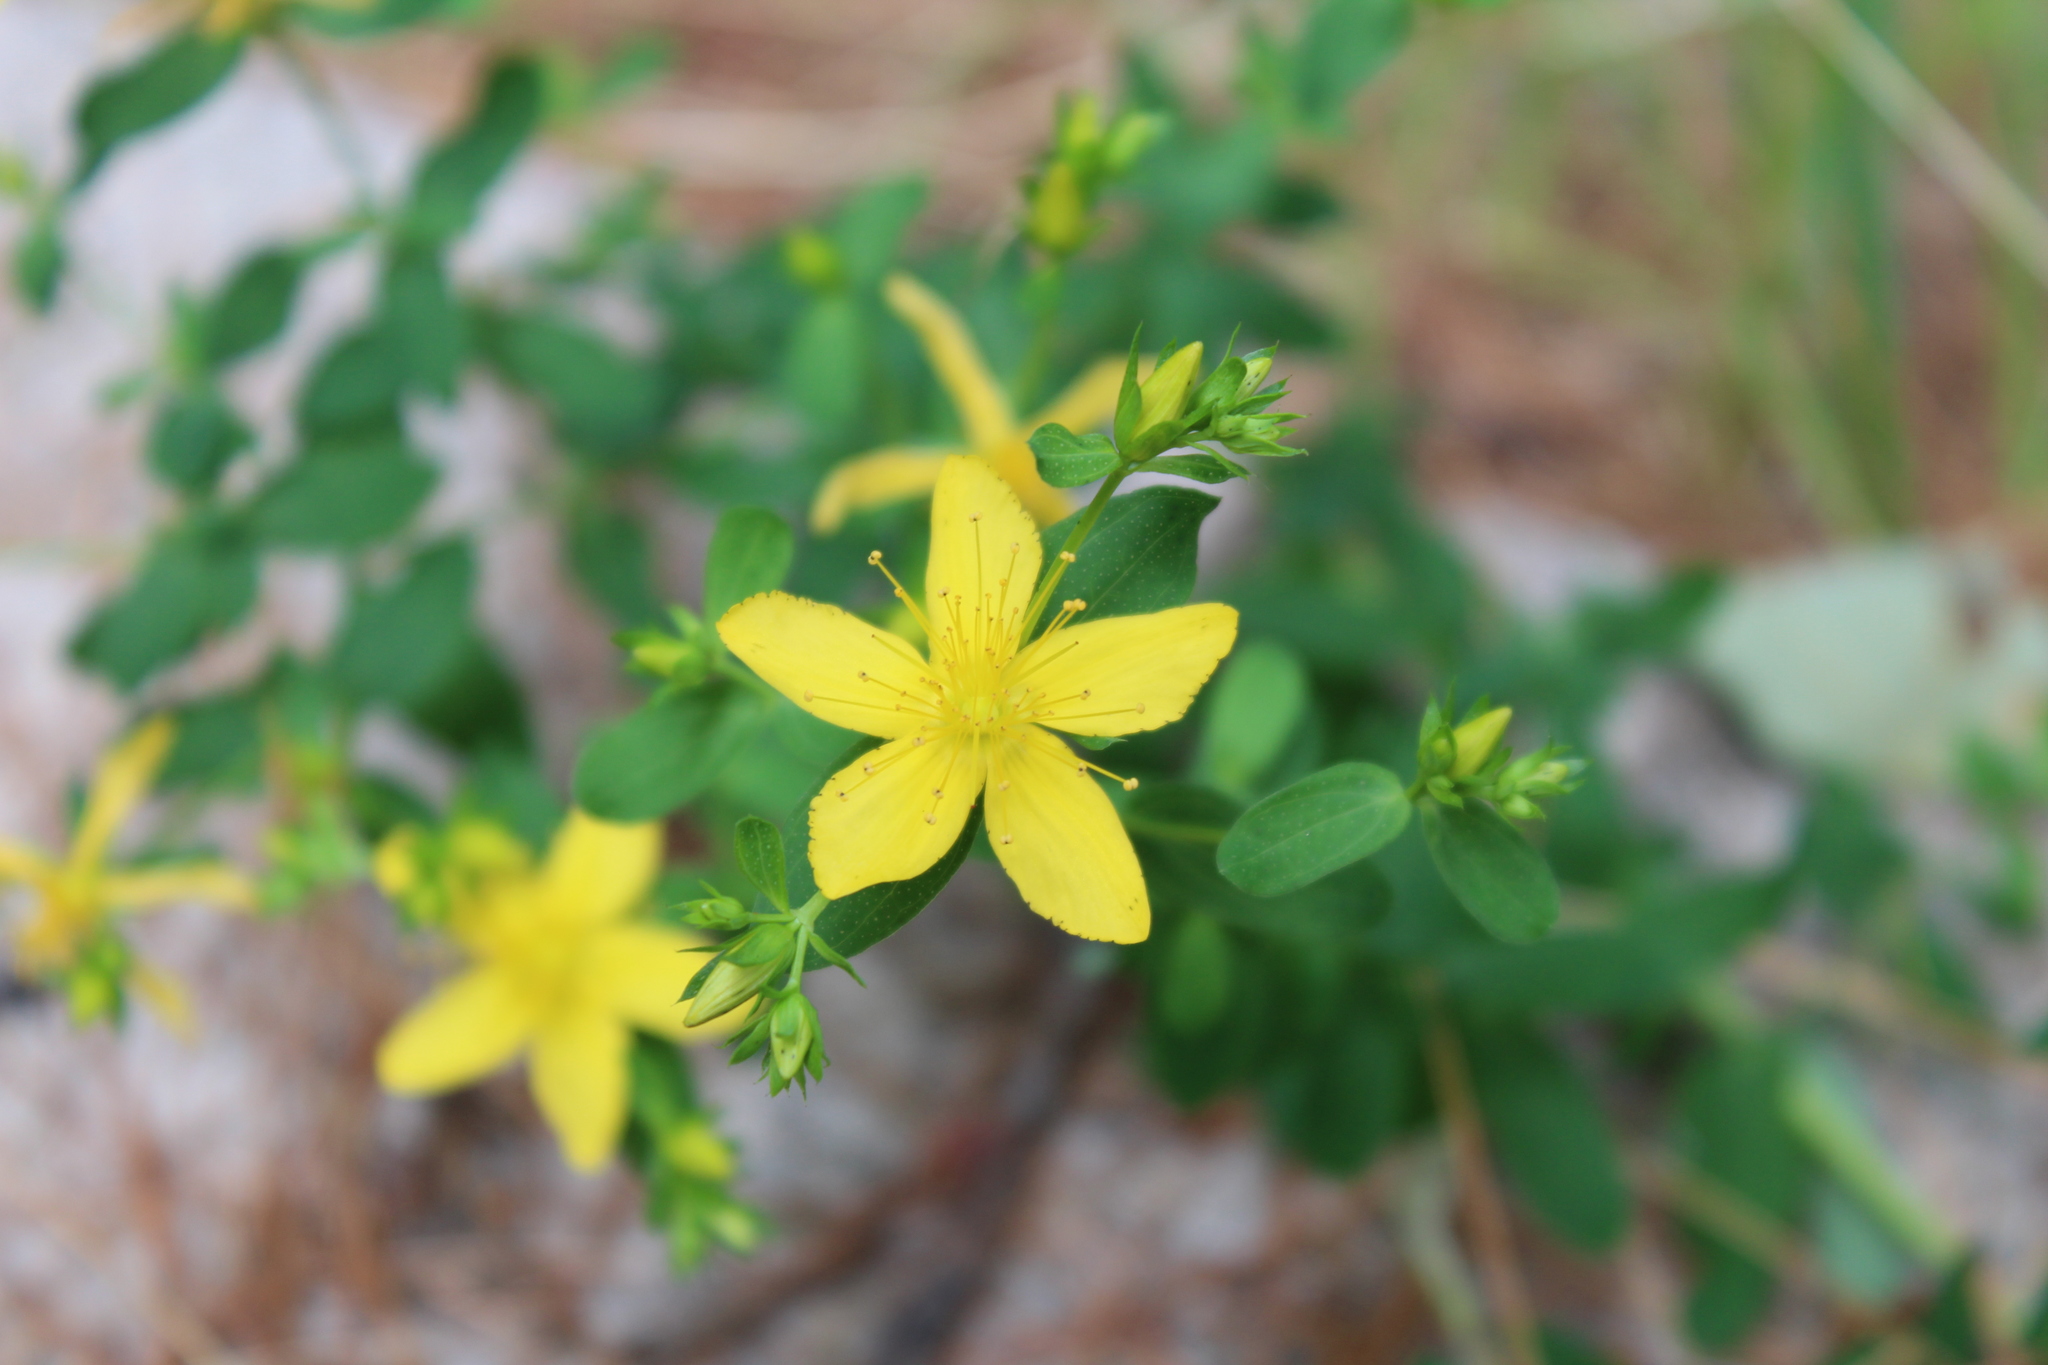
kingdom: Plantae
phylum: Tracheophyta
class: Magnoliopsida
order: Malpighiales
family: Hypericaceae
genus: Hypericum
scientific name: Hypericum perforatum
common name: Common st. johnswort
